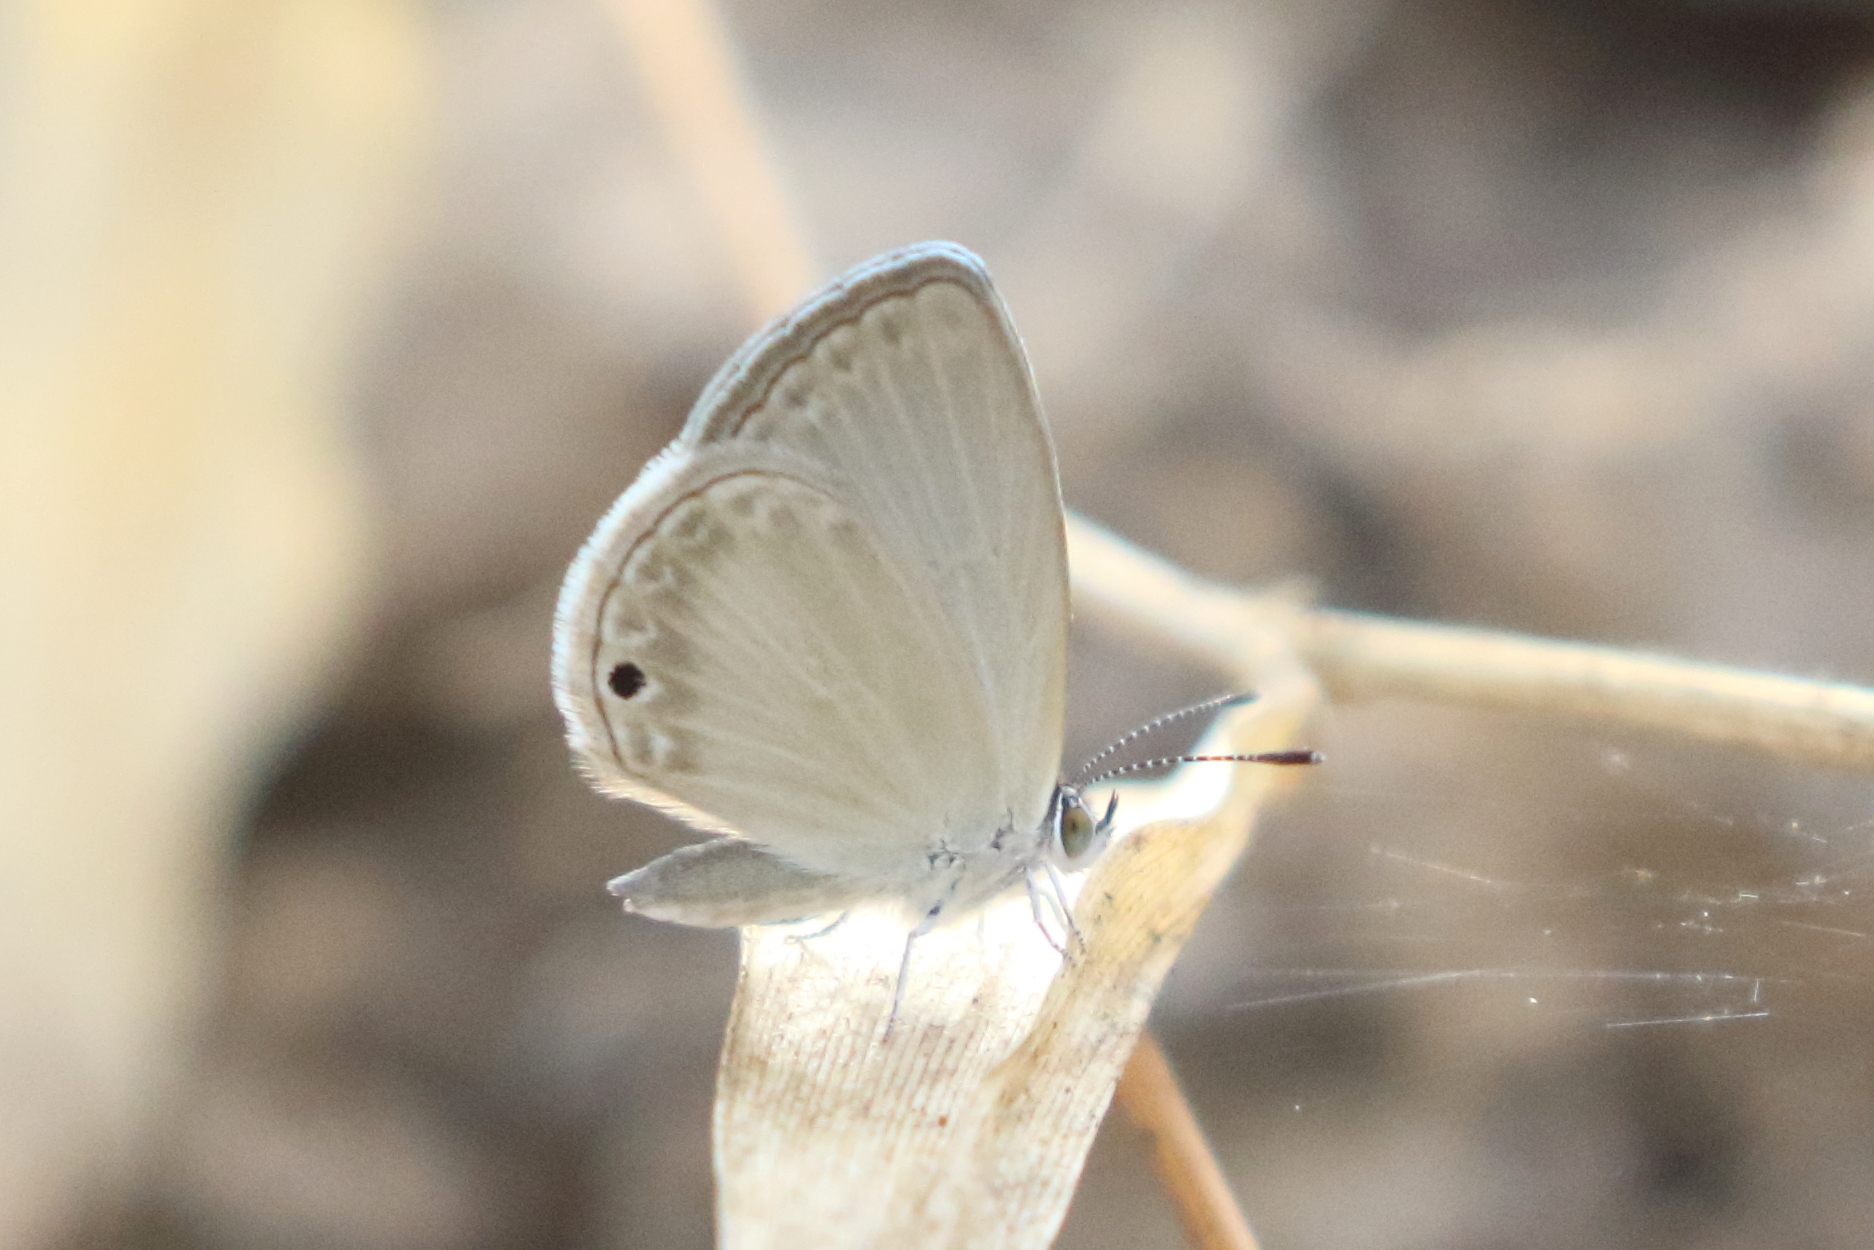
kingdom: Animalia
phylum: Arthropoda
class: Insecta
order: Lepidoptera
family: Lycaenidae
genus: Cupido
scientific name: Cupido nisa
